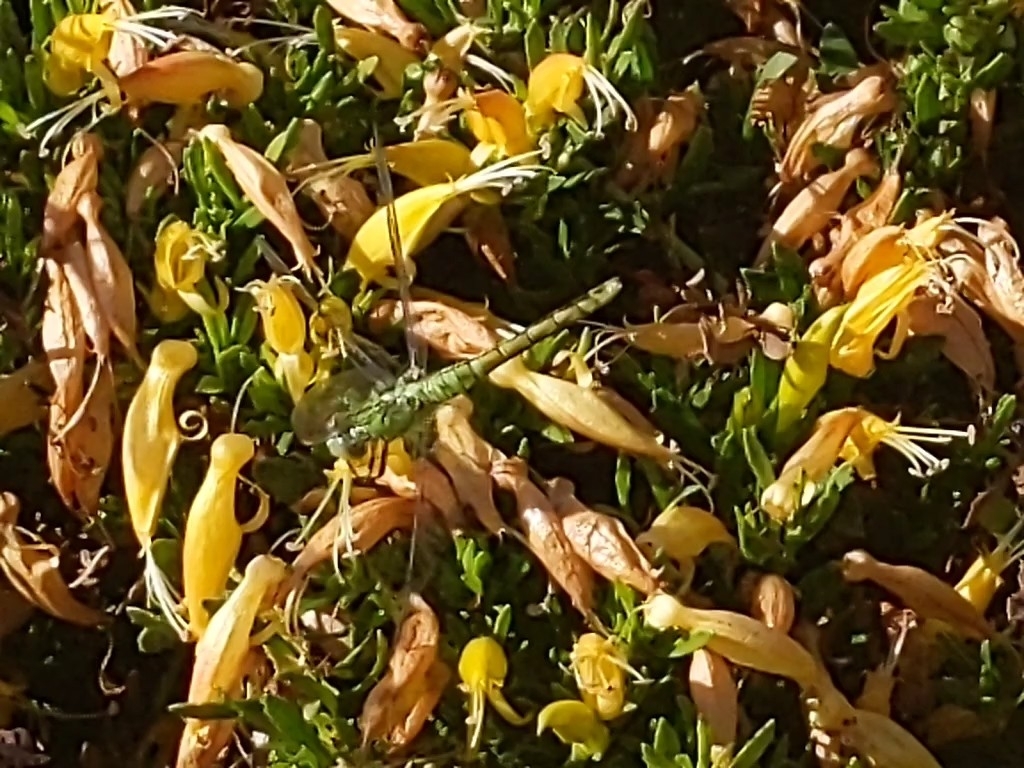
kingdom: Animalia
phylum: Arthropoda
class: Insecta
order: Odonata
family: Libellulidae
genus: Erythemis
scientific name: Erythemis collocata
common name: Western pondhawk
